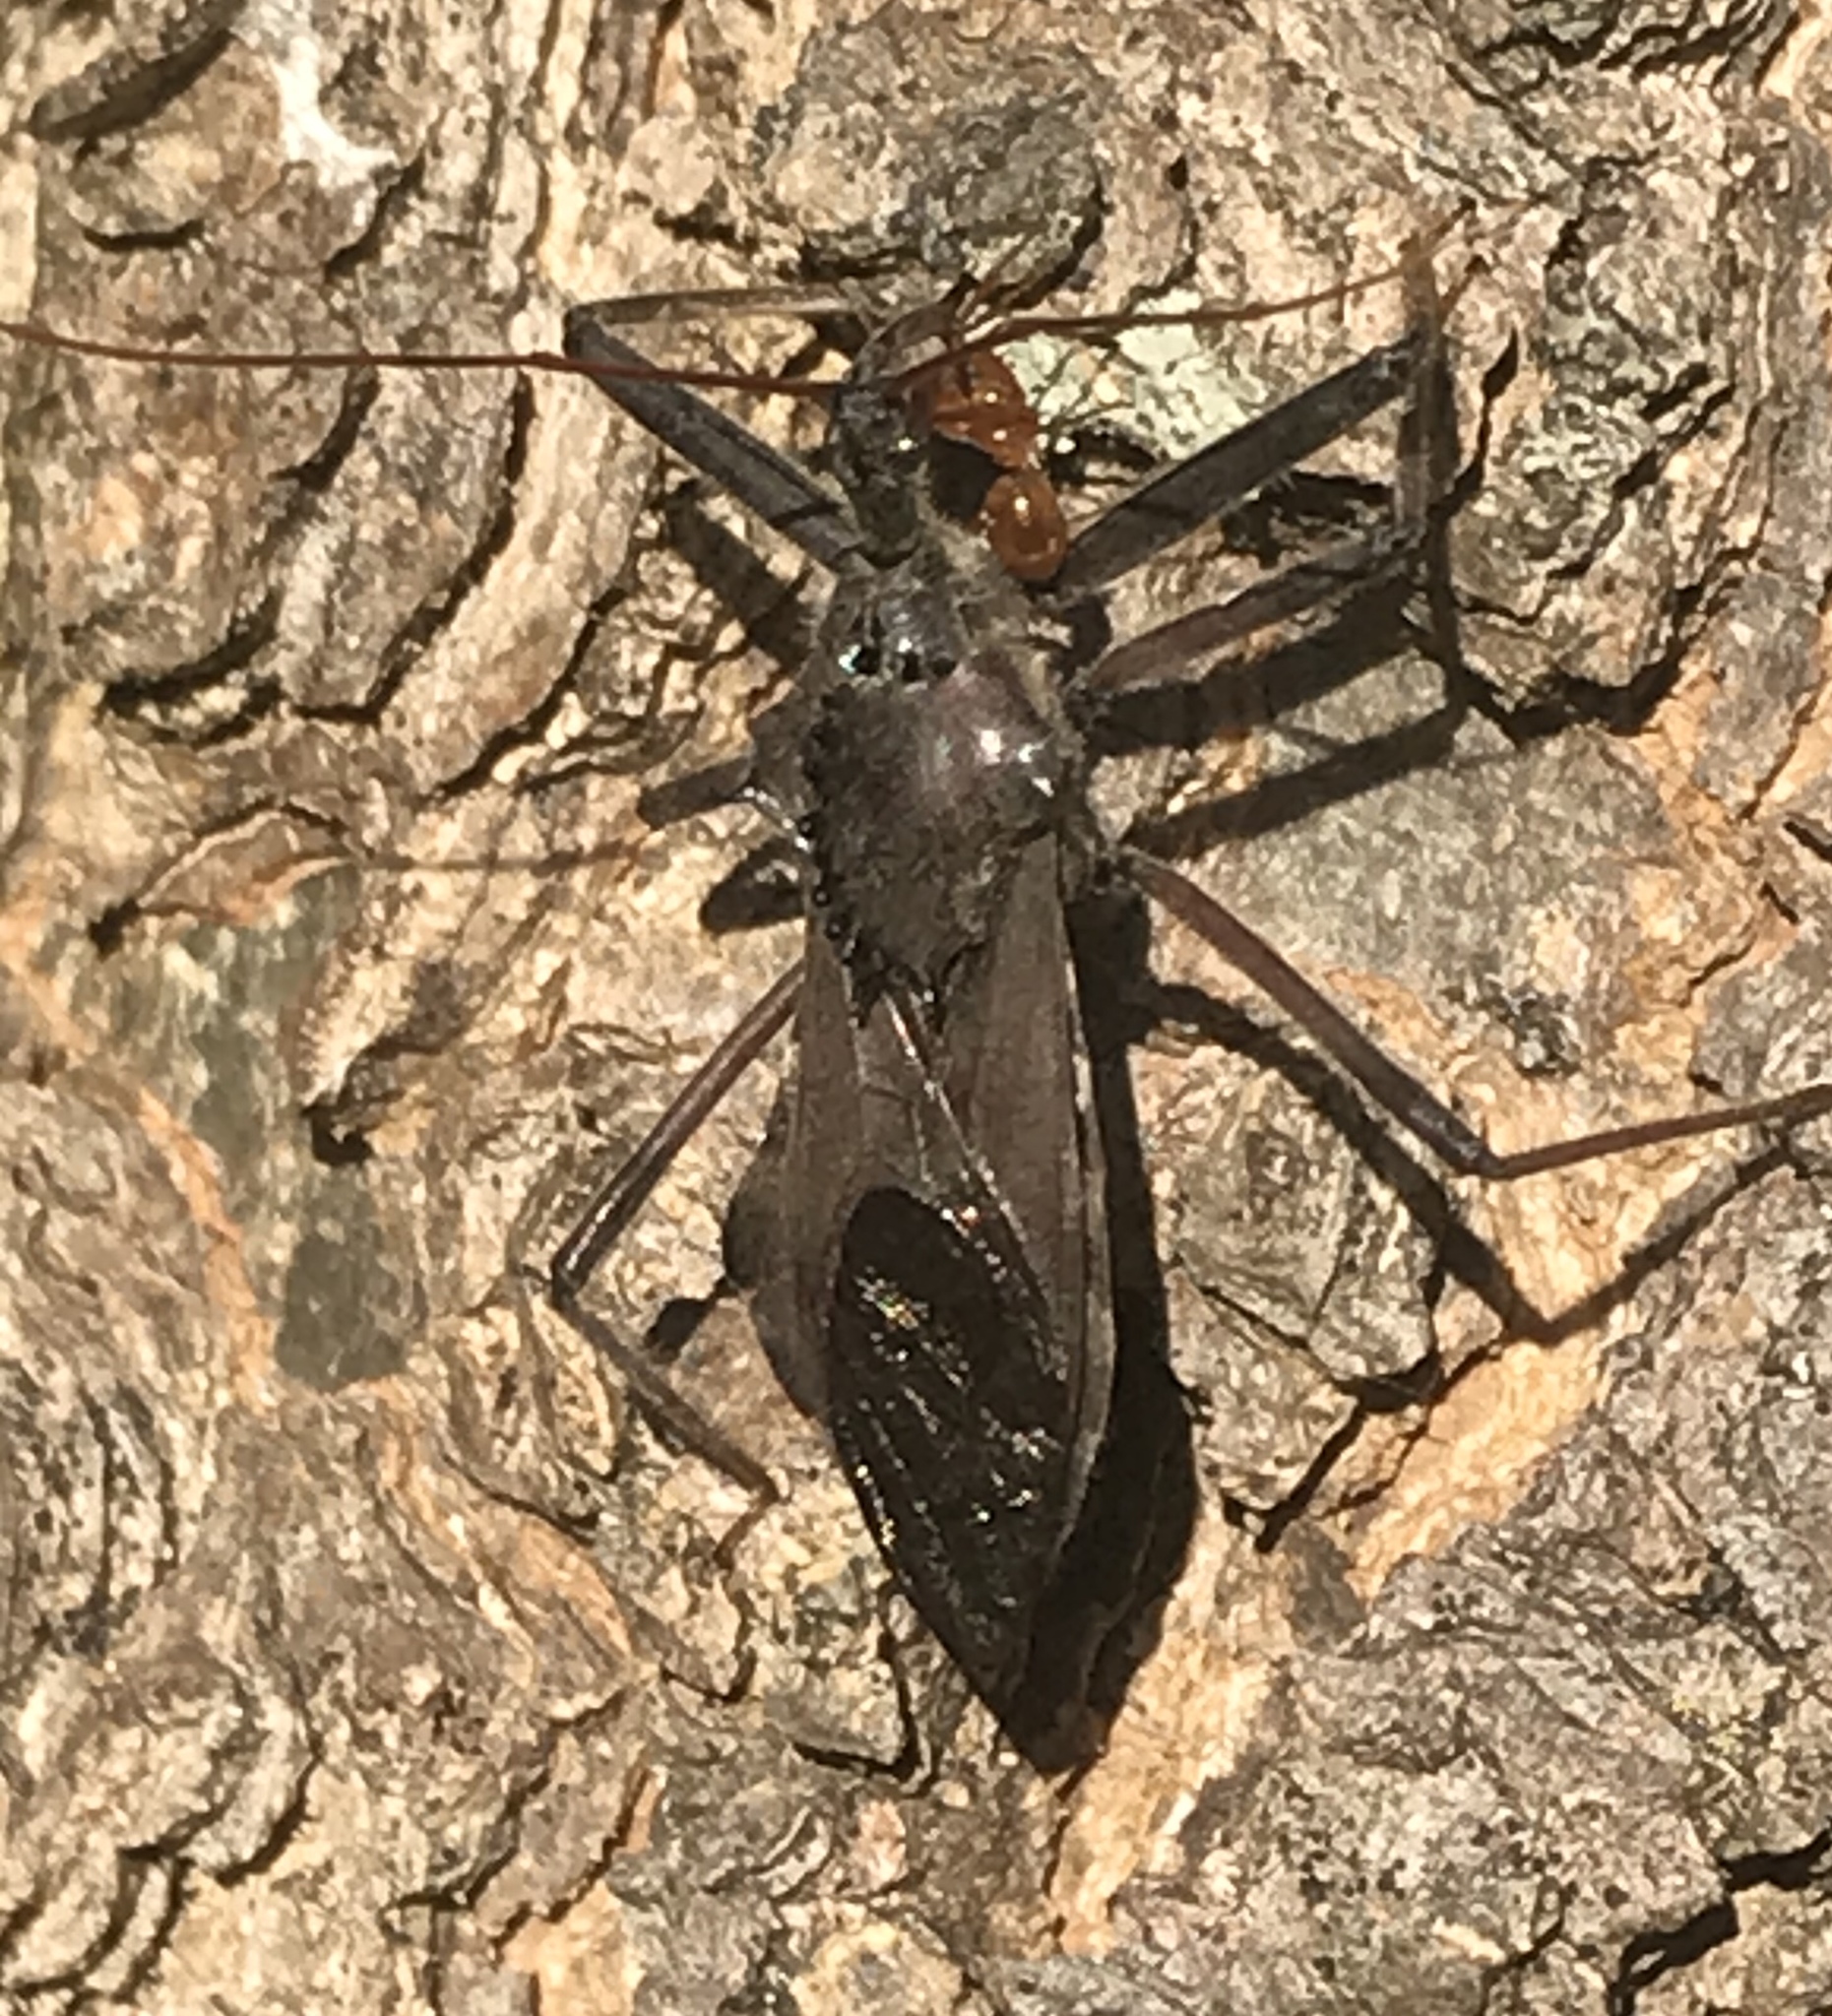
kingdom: Animalia
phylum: Arthropoda
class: Insecta
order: Hemiptera
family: Reduviidae
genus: Arilus
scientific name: Arilus cristatus
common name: North american wheel bug
